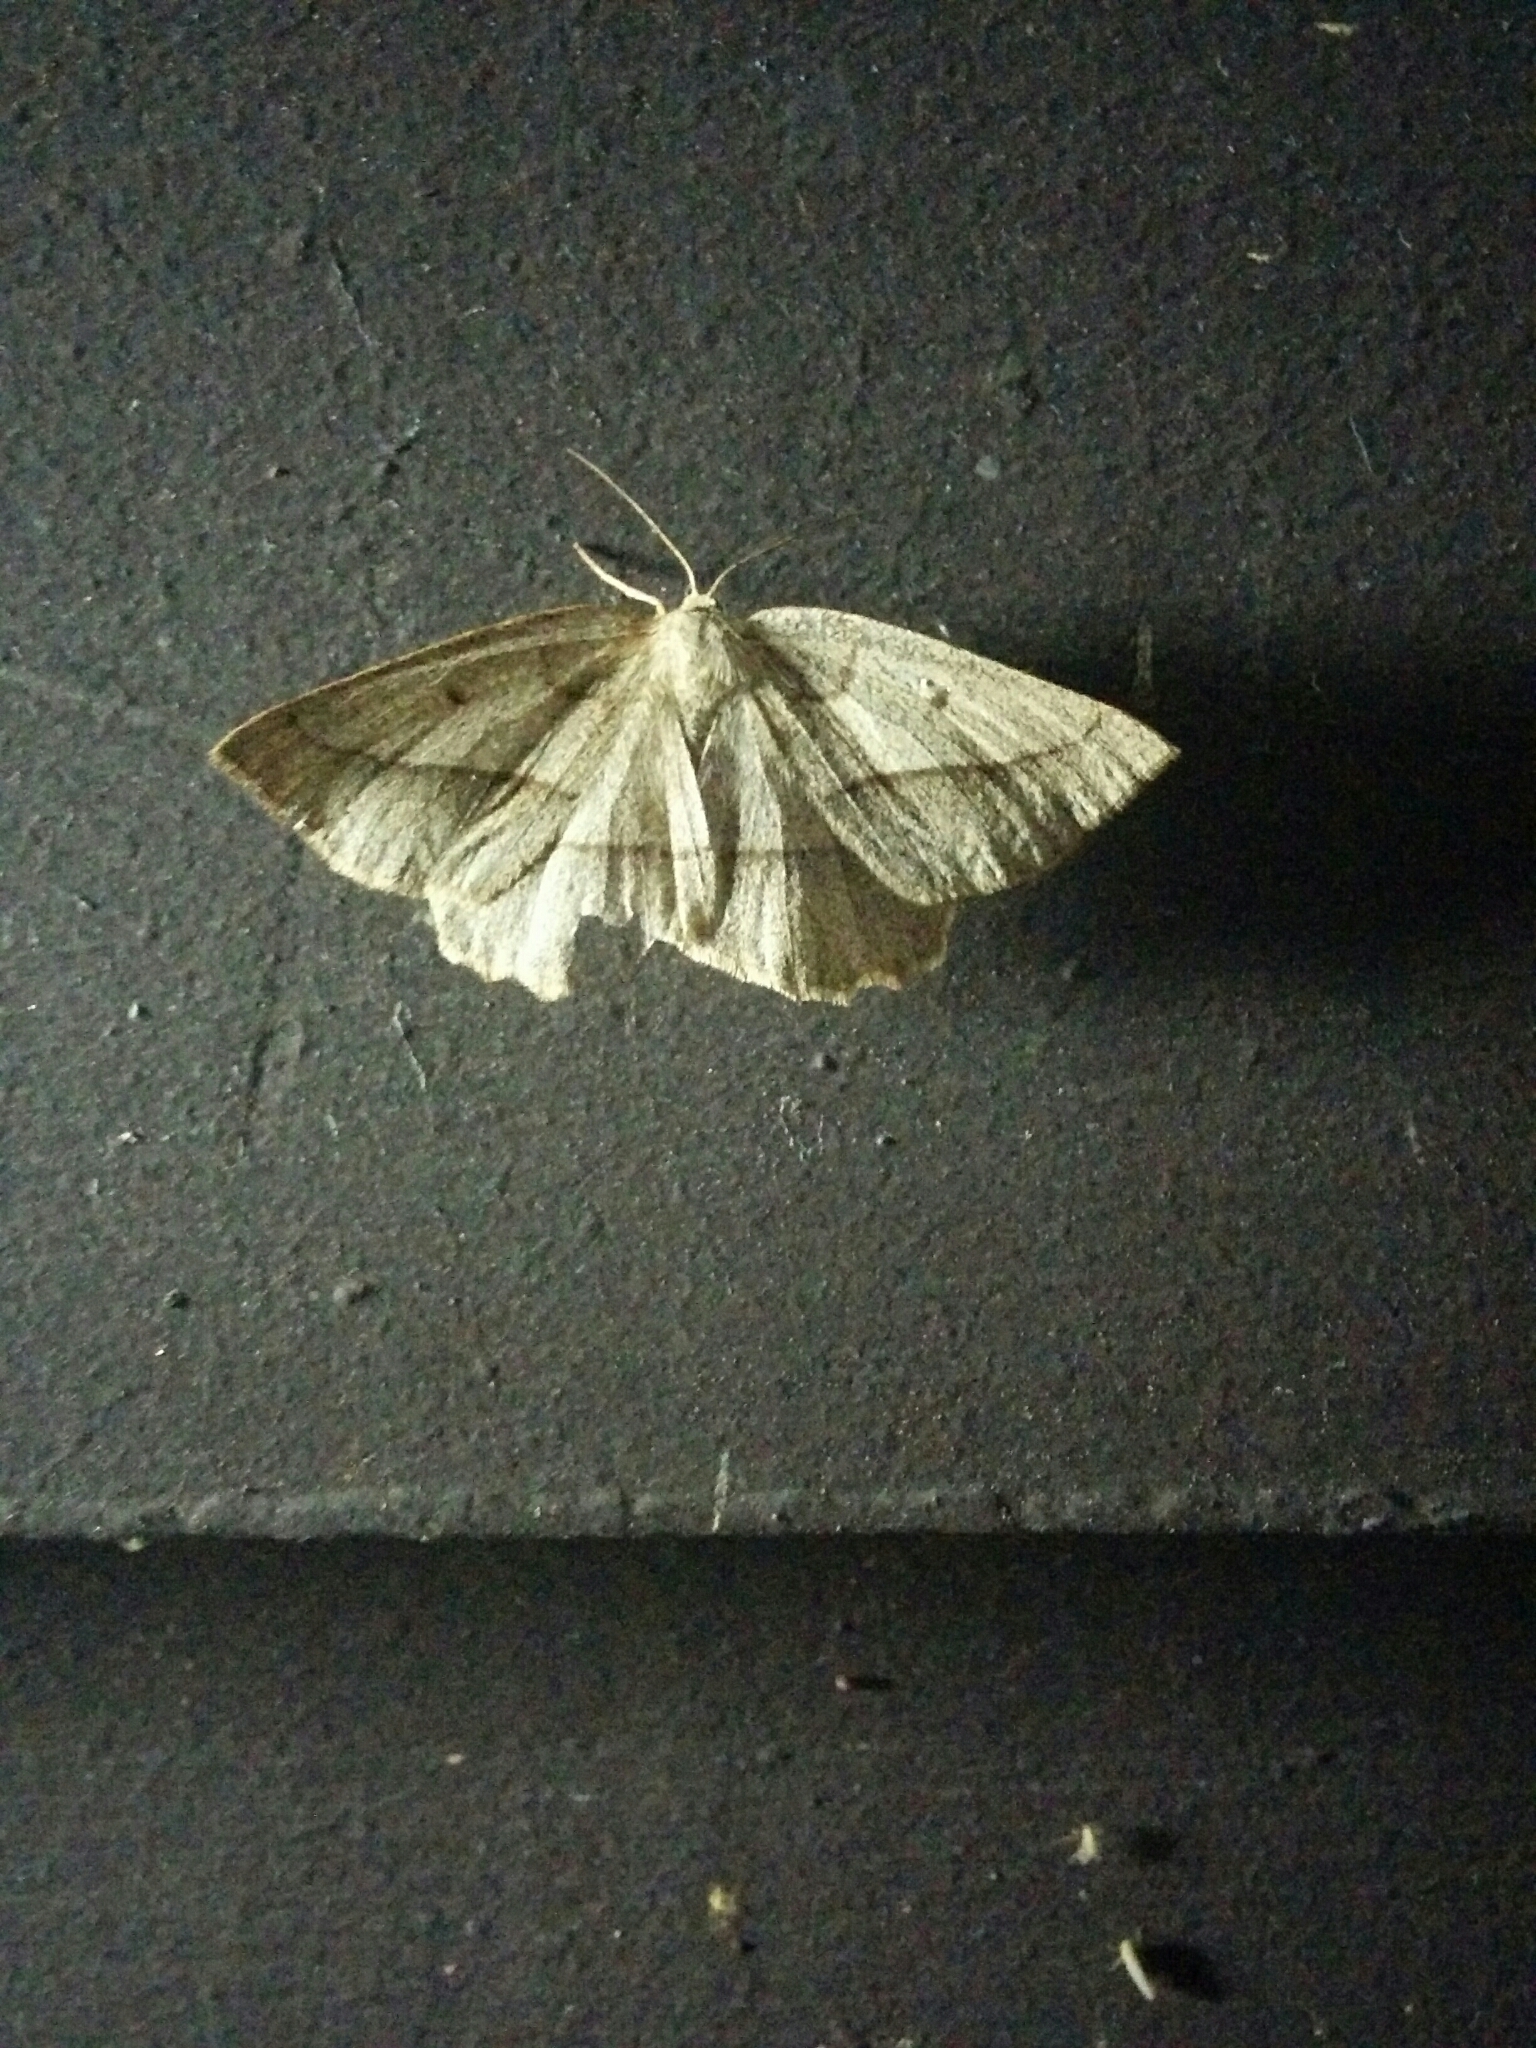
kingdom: Animalia
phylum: Arthropoda
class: Insecta
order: Lepidoptera
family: Geometridae
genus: Euchlaena
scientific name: Euchlaena irraria
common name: Least-marked euchlaena
